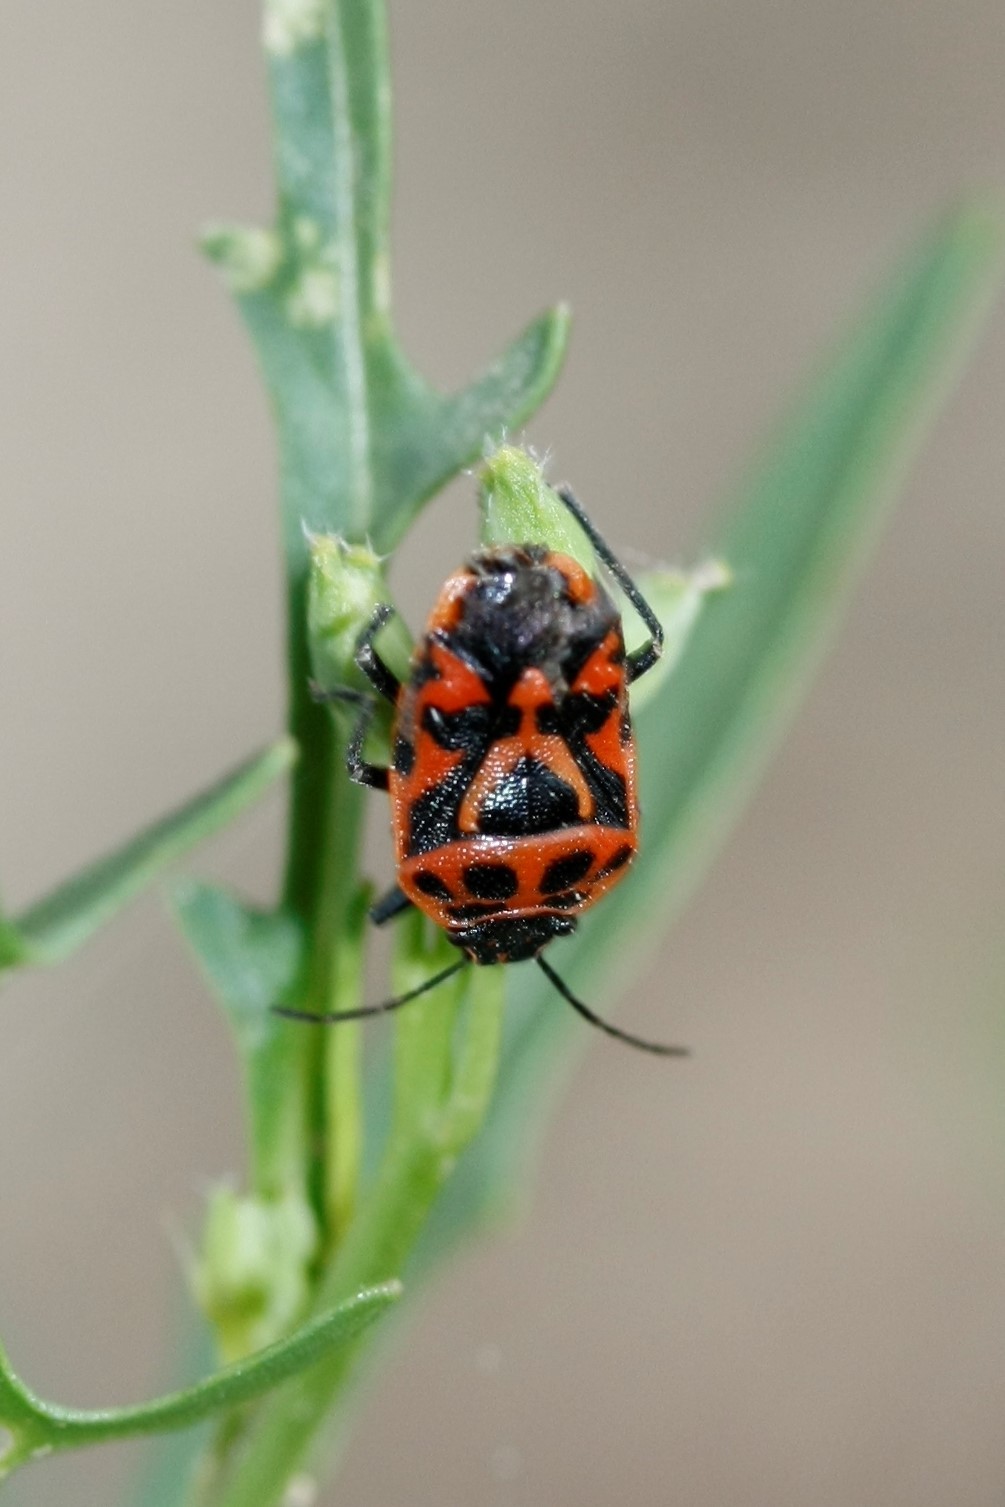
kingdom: Animalia
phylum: Arthropoda
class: Insecta
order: Hemiptera
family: Pentatomidae
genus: Eurydema
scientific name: Eurydema ornata
